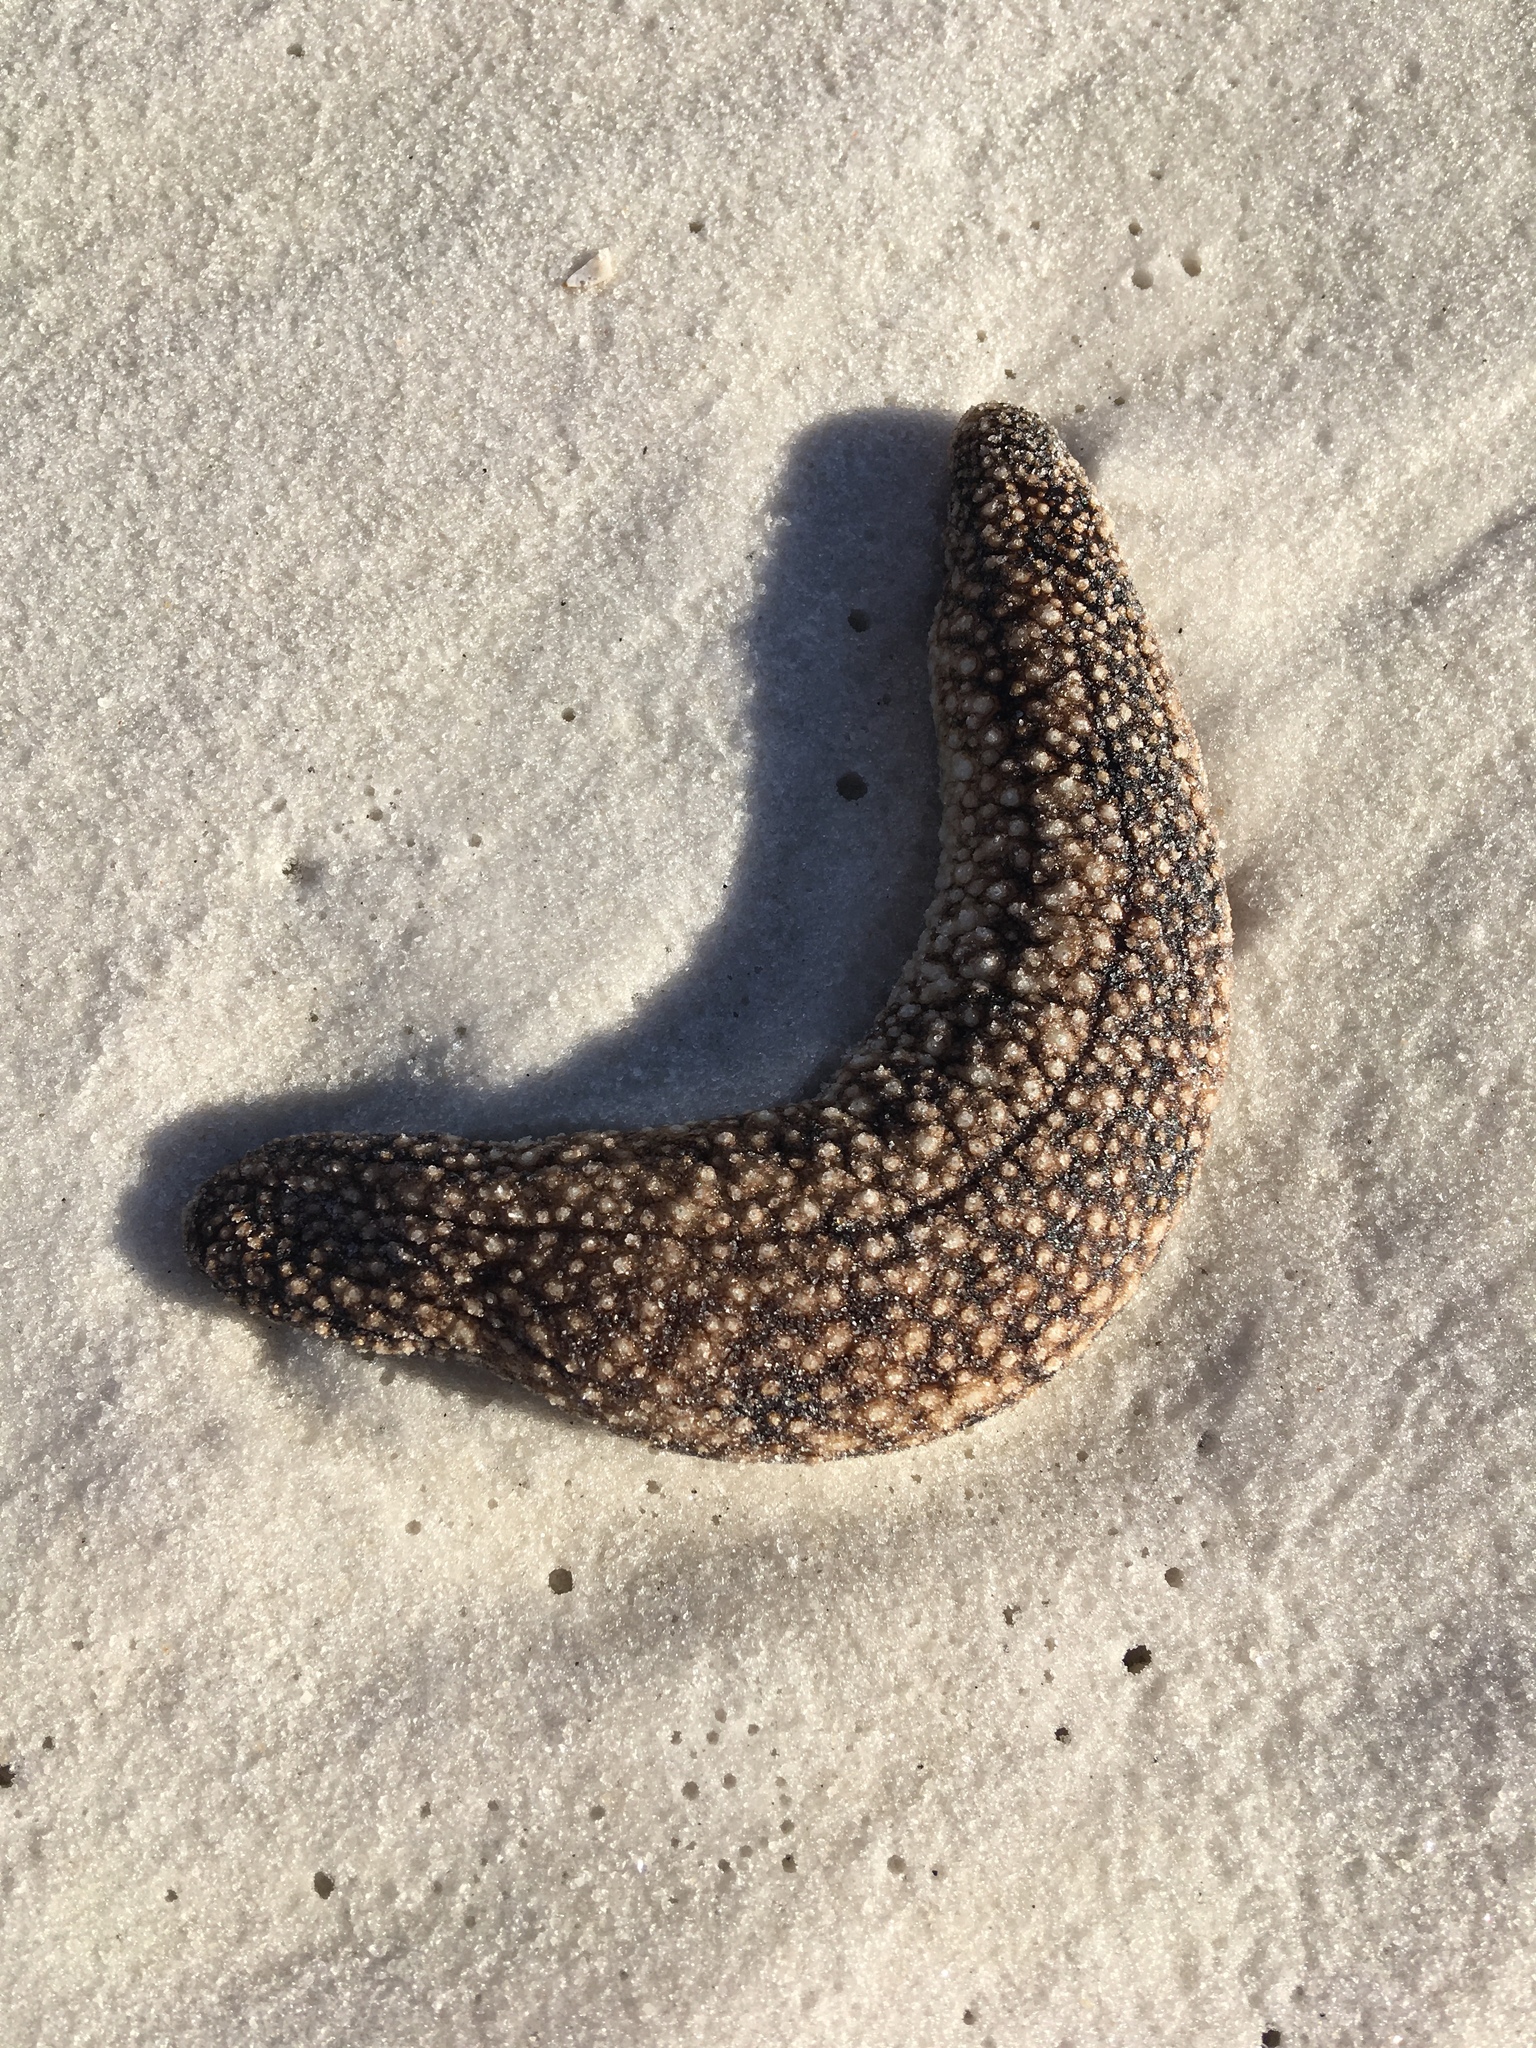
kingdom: Animalia
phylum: Echinodermata
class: Holothuroidea
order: Holothuriida
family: Holothuriidae
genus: Holothuria
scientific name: Holothuria princeps
